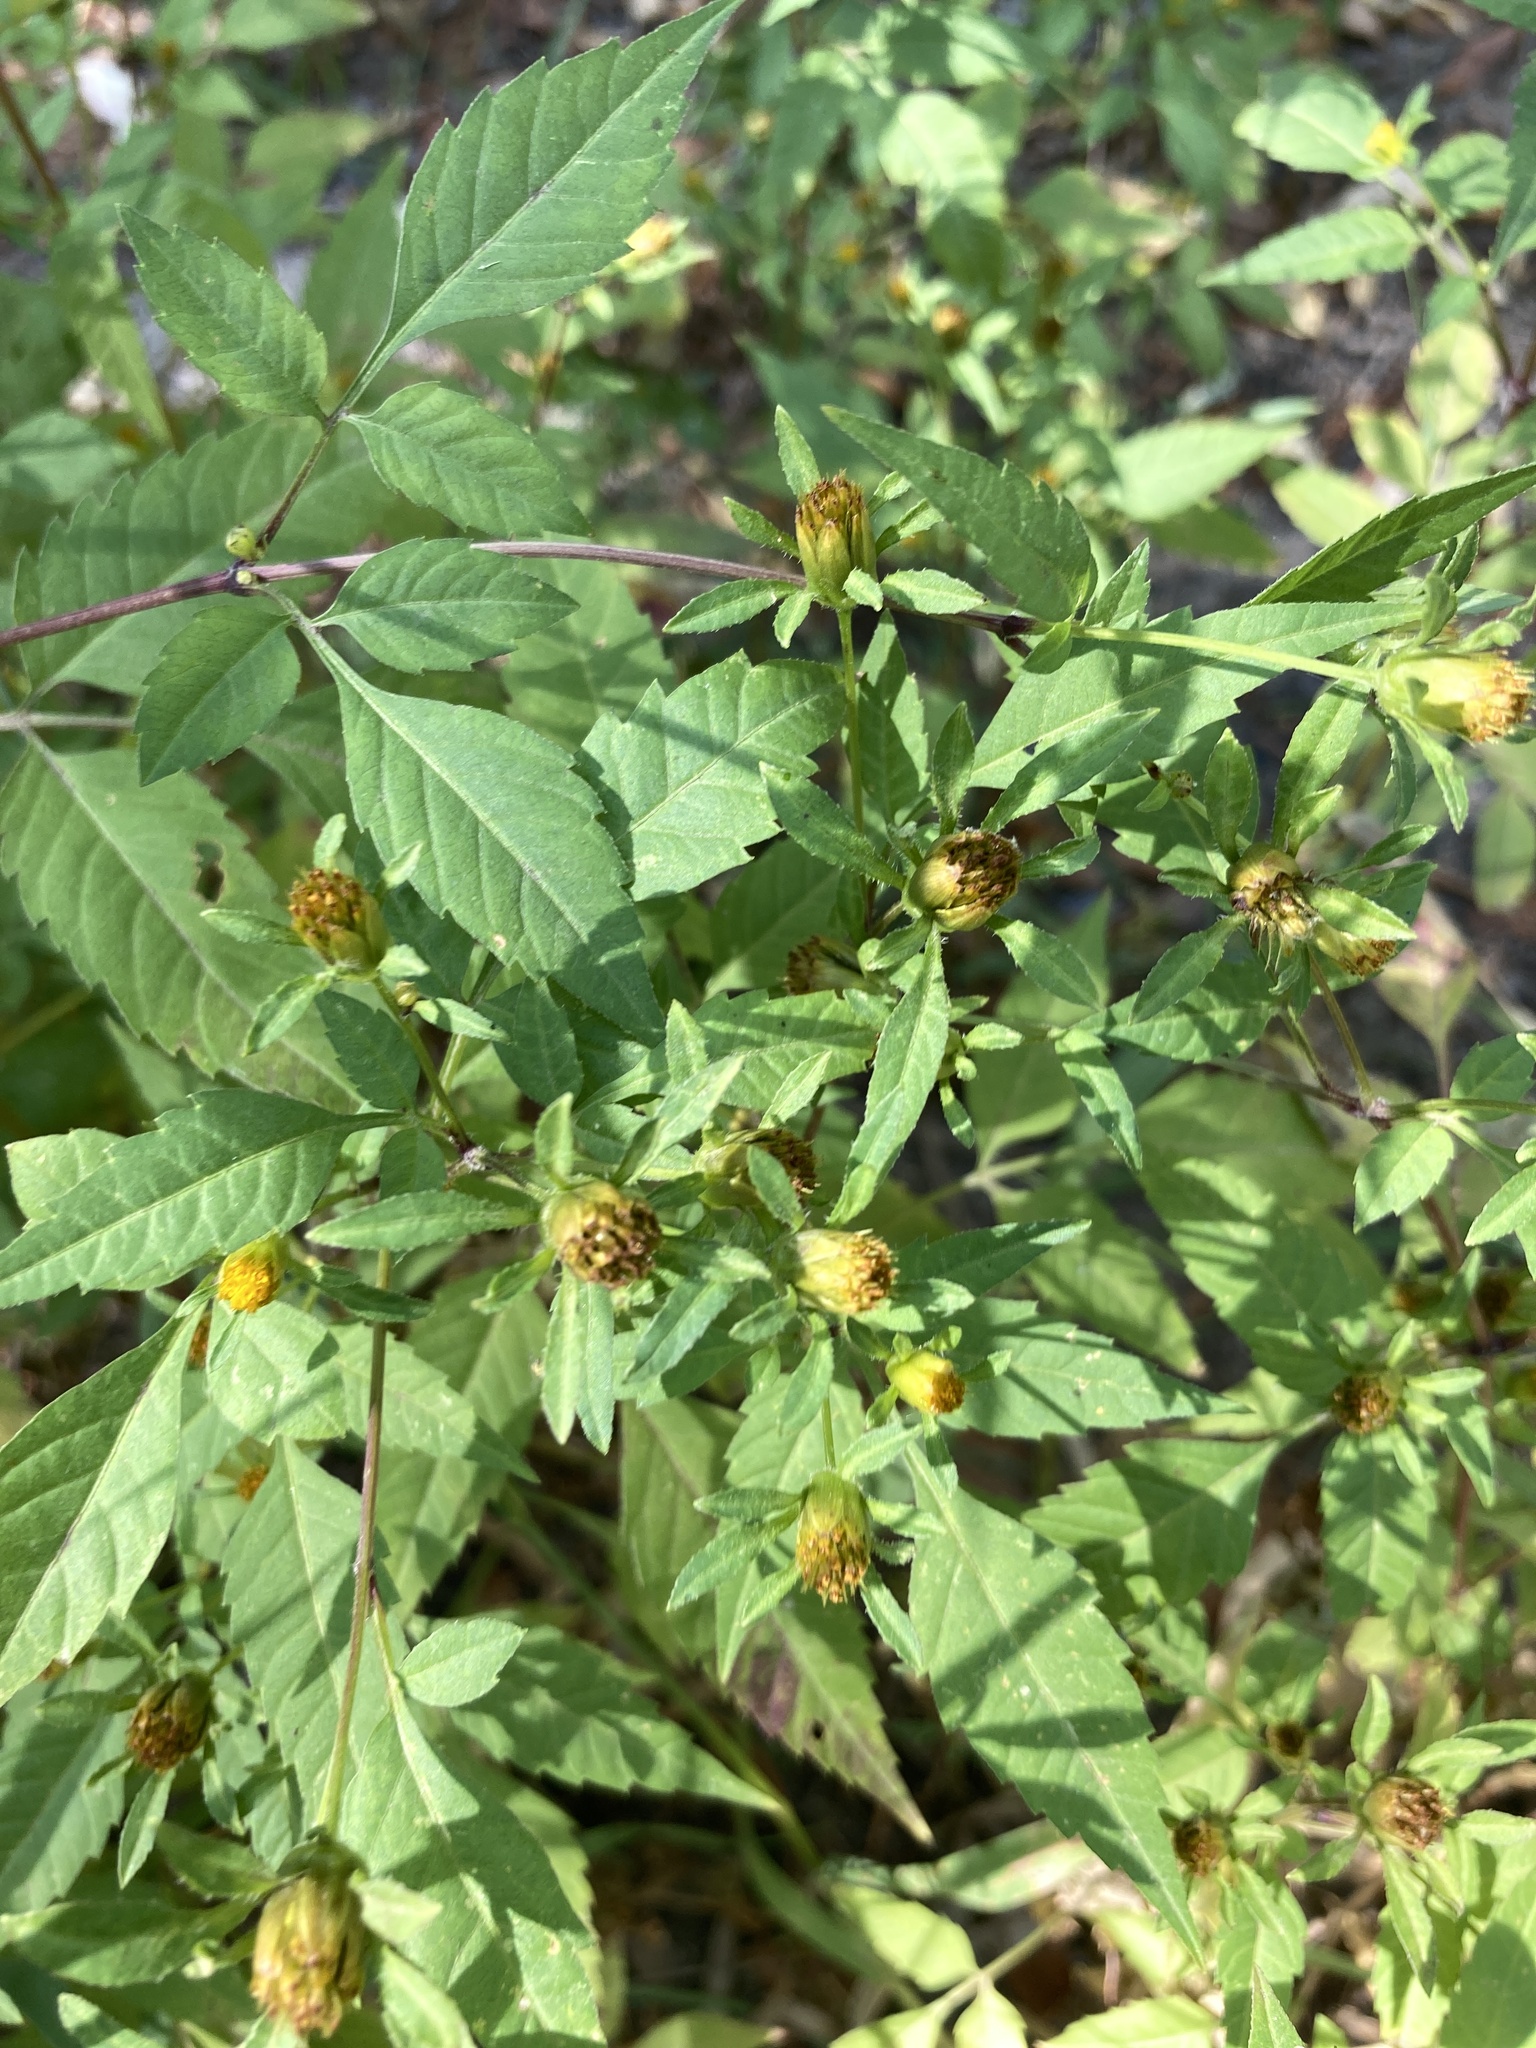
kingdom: Plantae
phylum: Tracheophyta
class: Magnoliopsida
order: Asterales
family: Asteraceae
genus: Bidens
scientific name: Bidens frondosa
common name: Beggarticks
